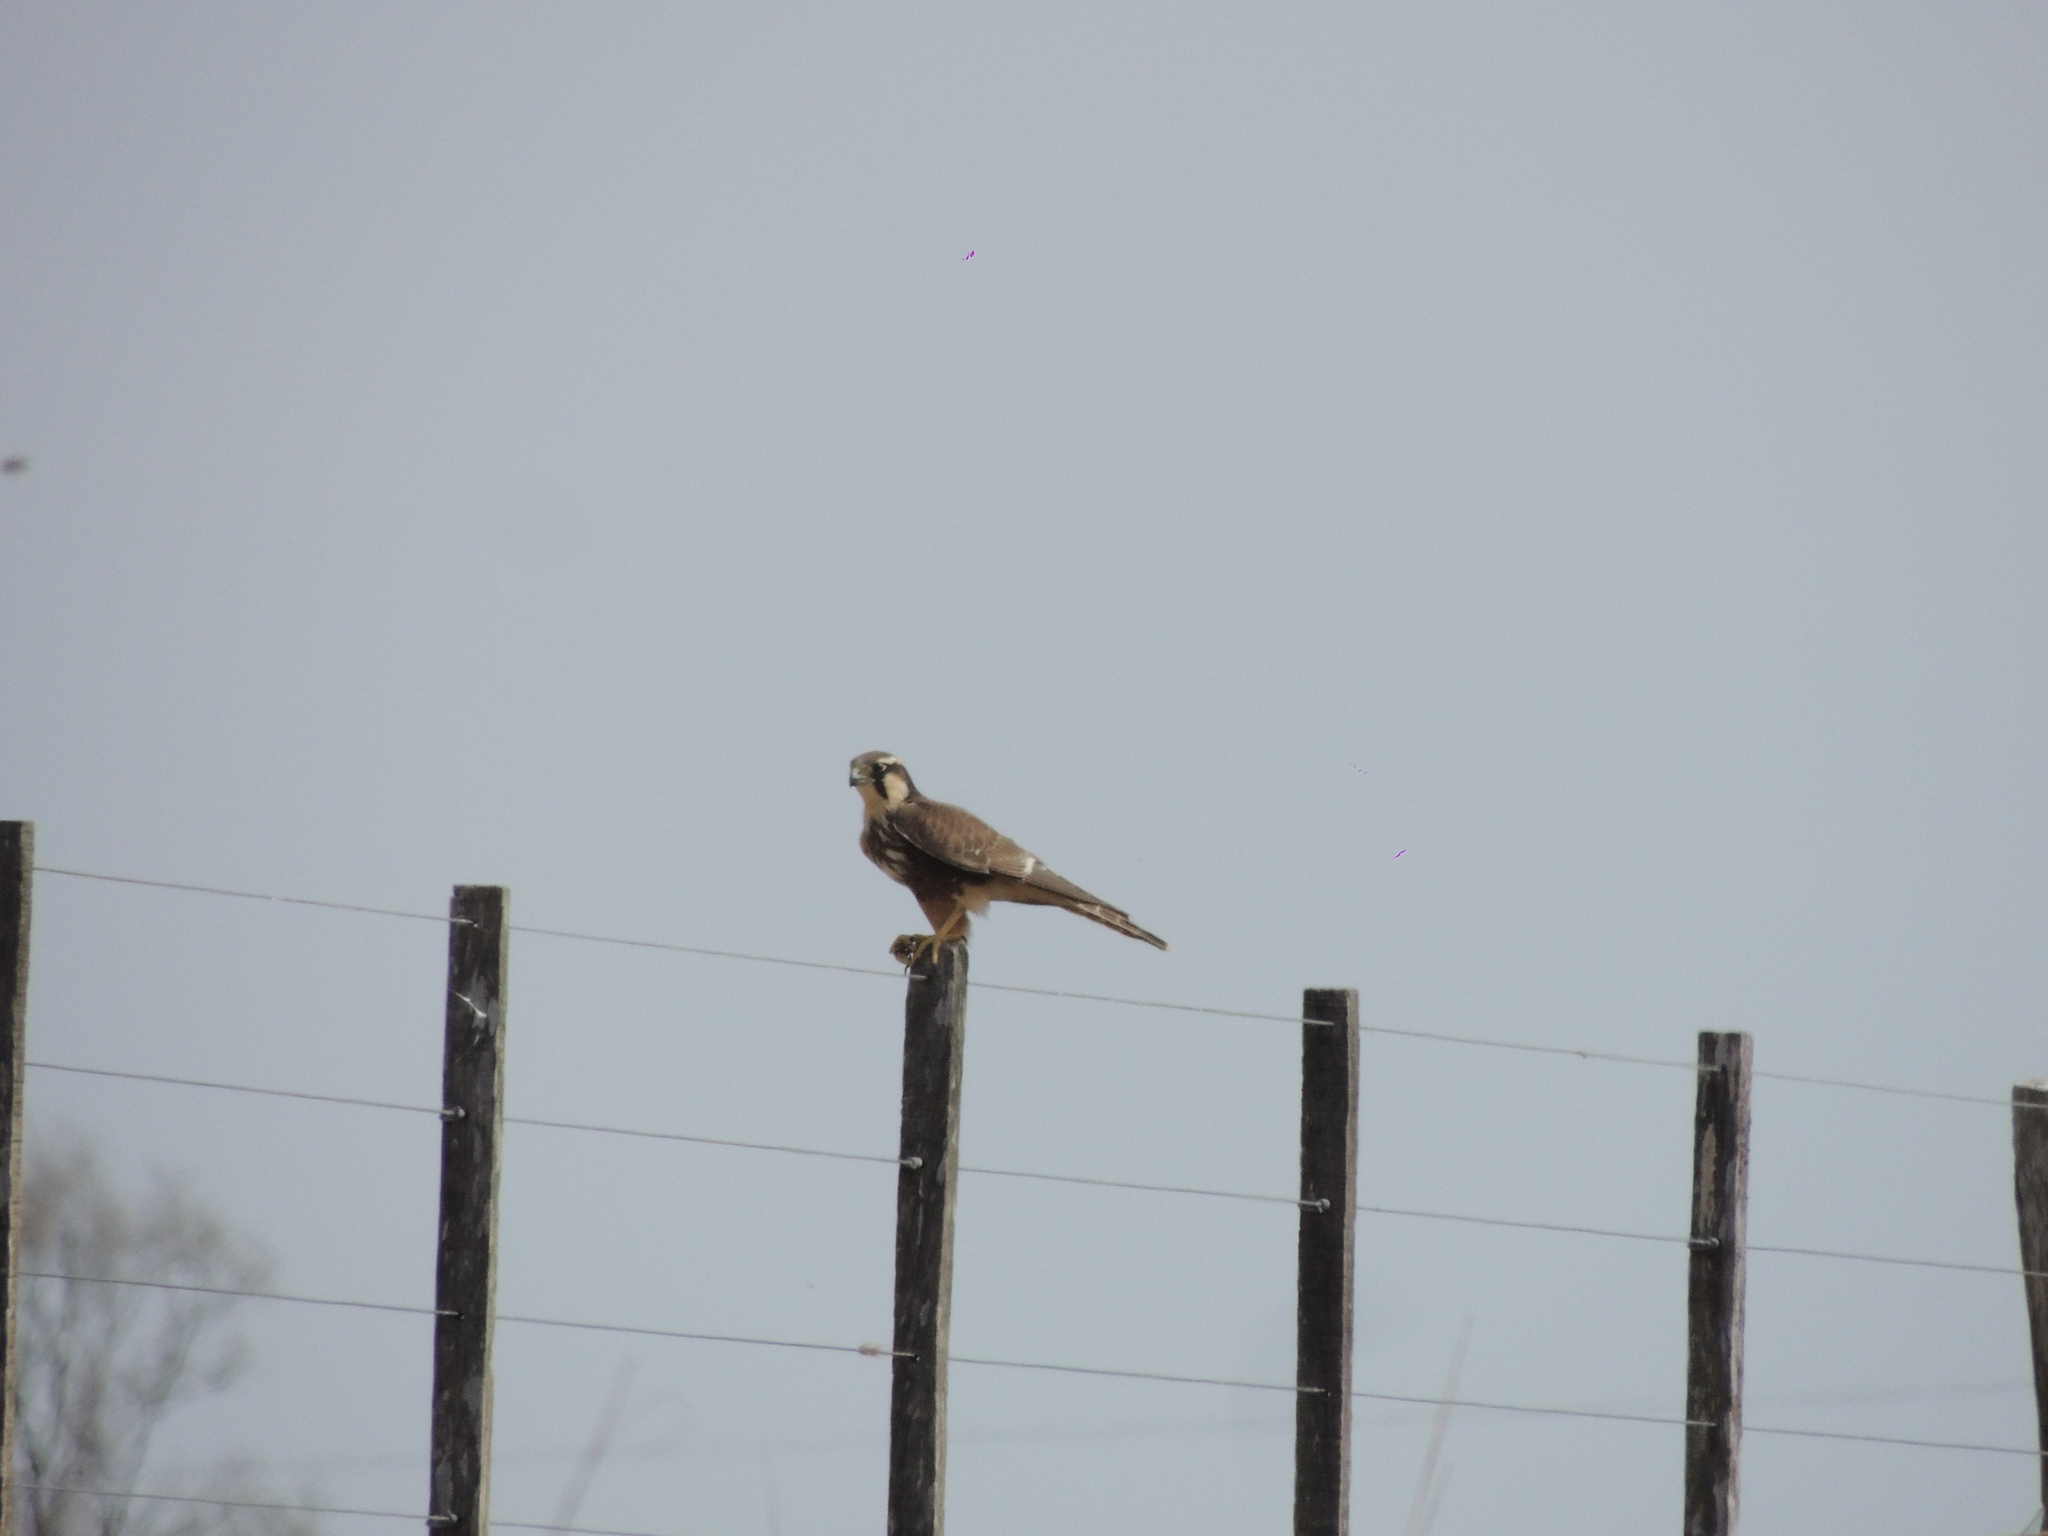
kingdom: Animalia
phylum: Chordata
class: Aves
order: Falconiformes
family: Falconidae
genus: Falco
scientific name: Falco femoralis
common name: Aplomado falcon
